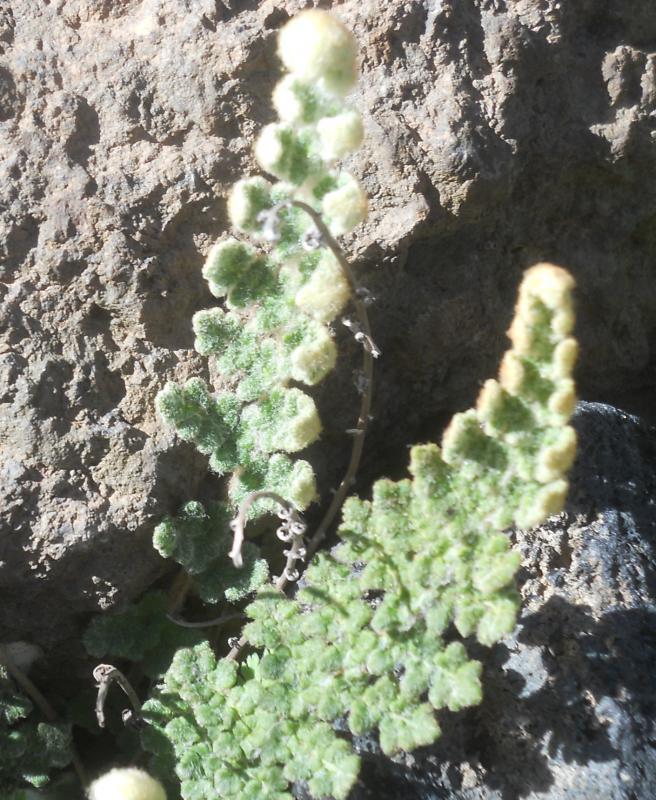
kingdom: Plantae
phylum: Tracheophyta
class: Polypodiopsida
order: Polypodiales
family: Pteridaceae
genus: Cosentinia
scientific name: Cosentinia vellea
